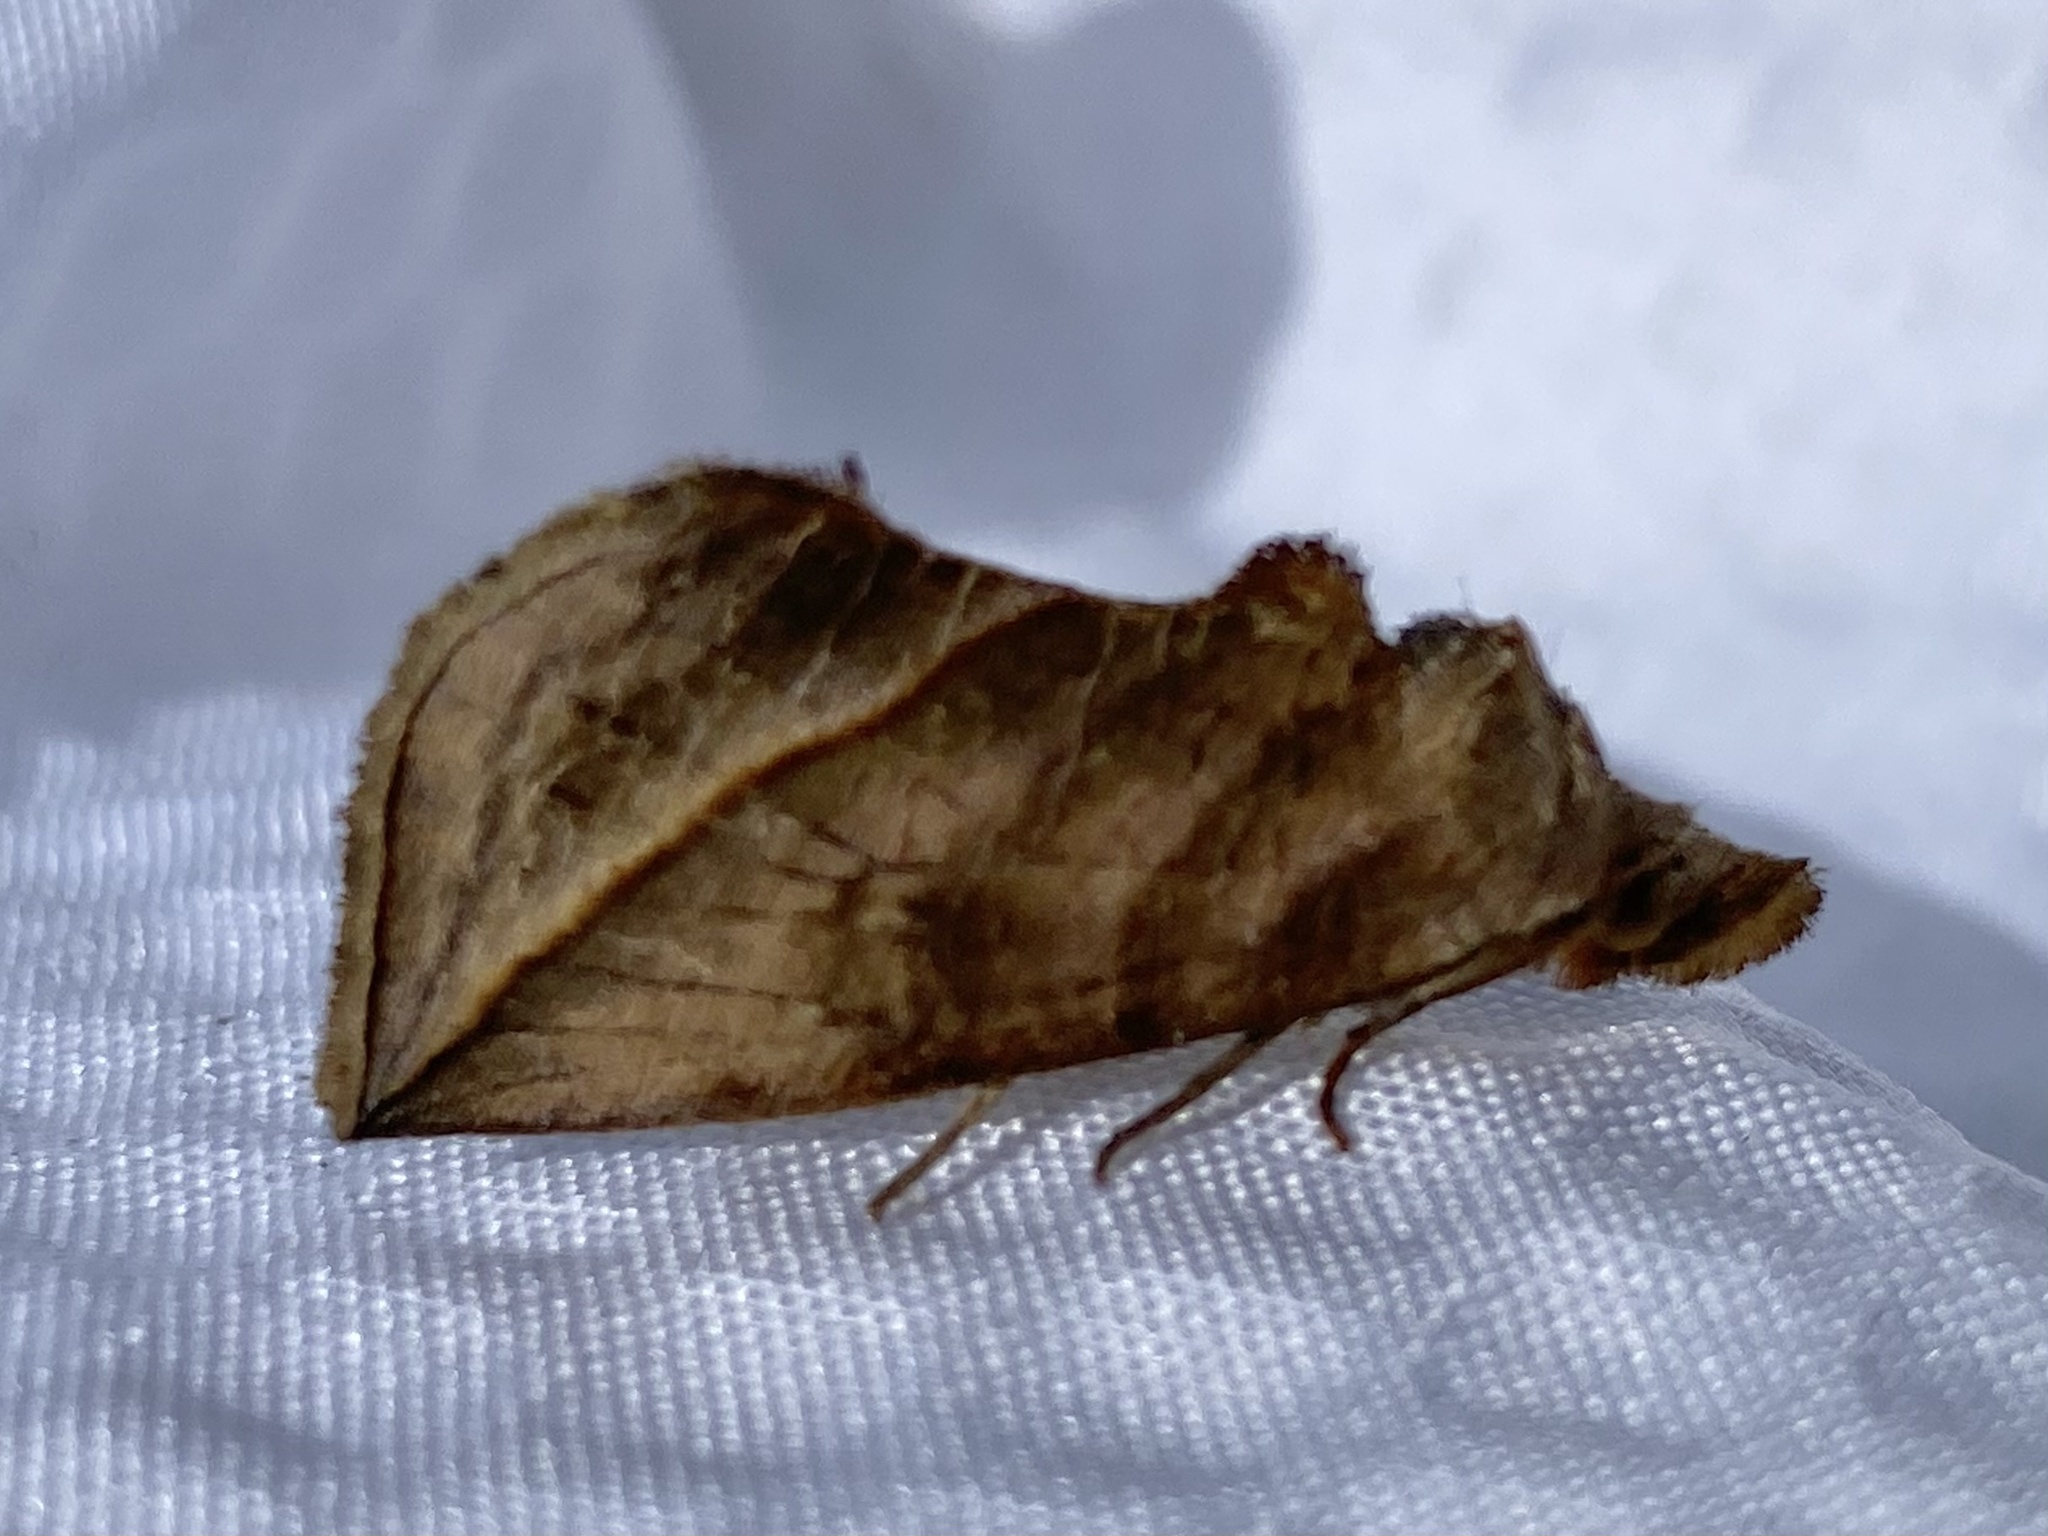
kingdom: Animalia
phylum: Arthropoda
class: Insecta
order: Lepidoptera
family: Erebidae
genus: Calyptra
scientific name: Calyptra canadensis
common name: Canadian owlet
